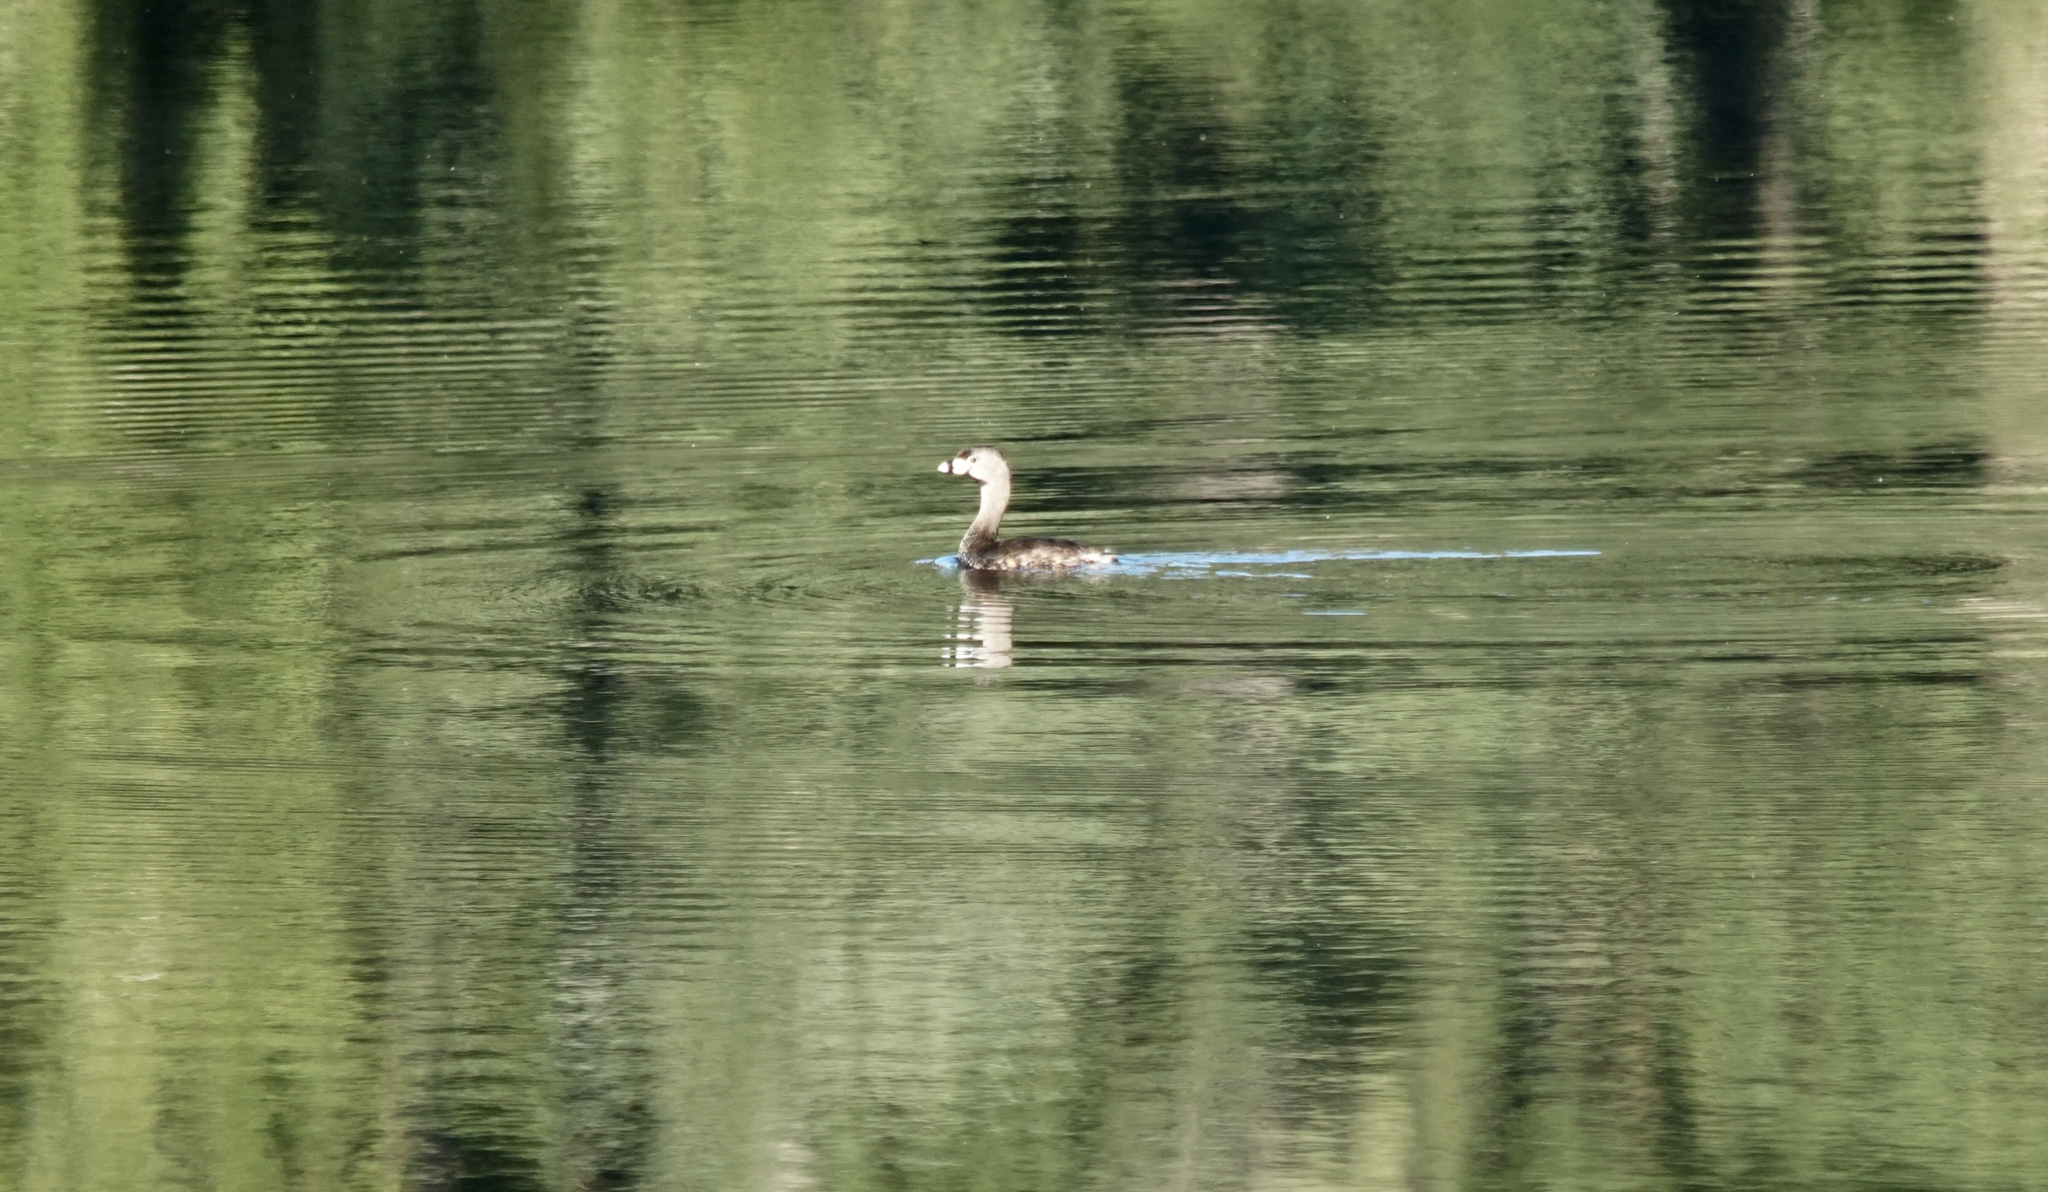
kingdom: Animalia
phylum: Chordata
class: Aves
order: Podicipediformes
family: Podicipedidae
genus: Podilymbus
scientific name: Podilymbus podiceps
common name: Pied-billed grebe
